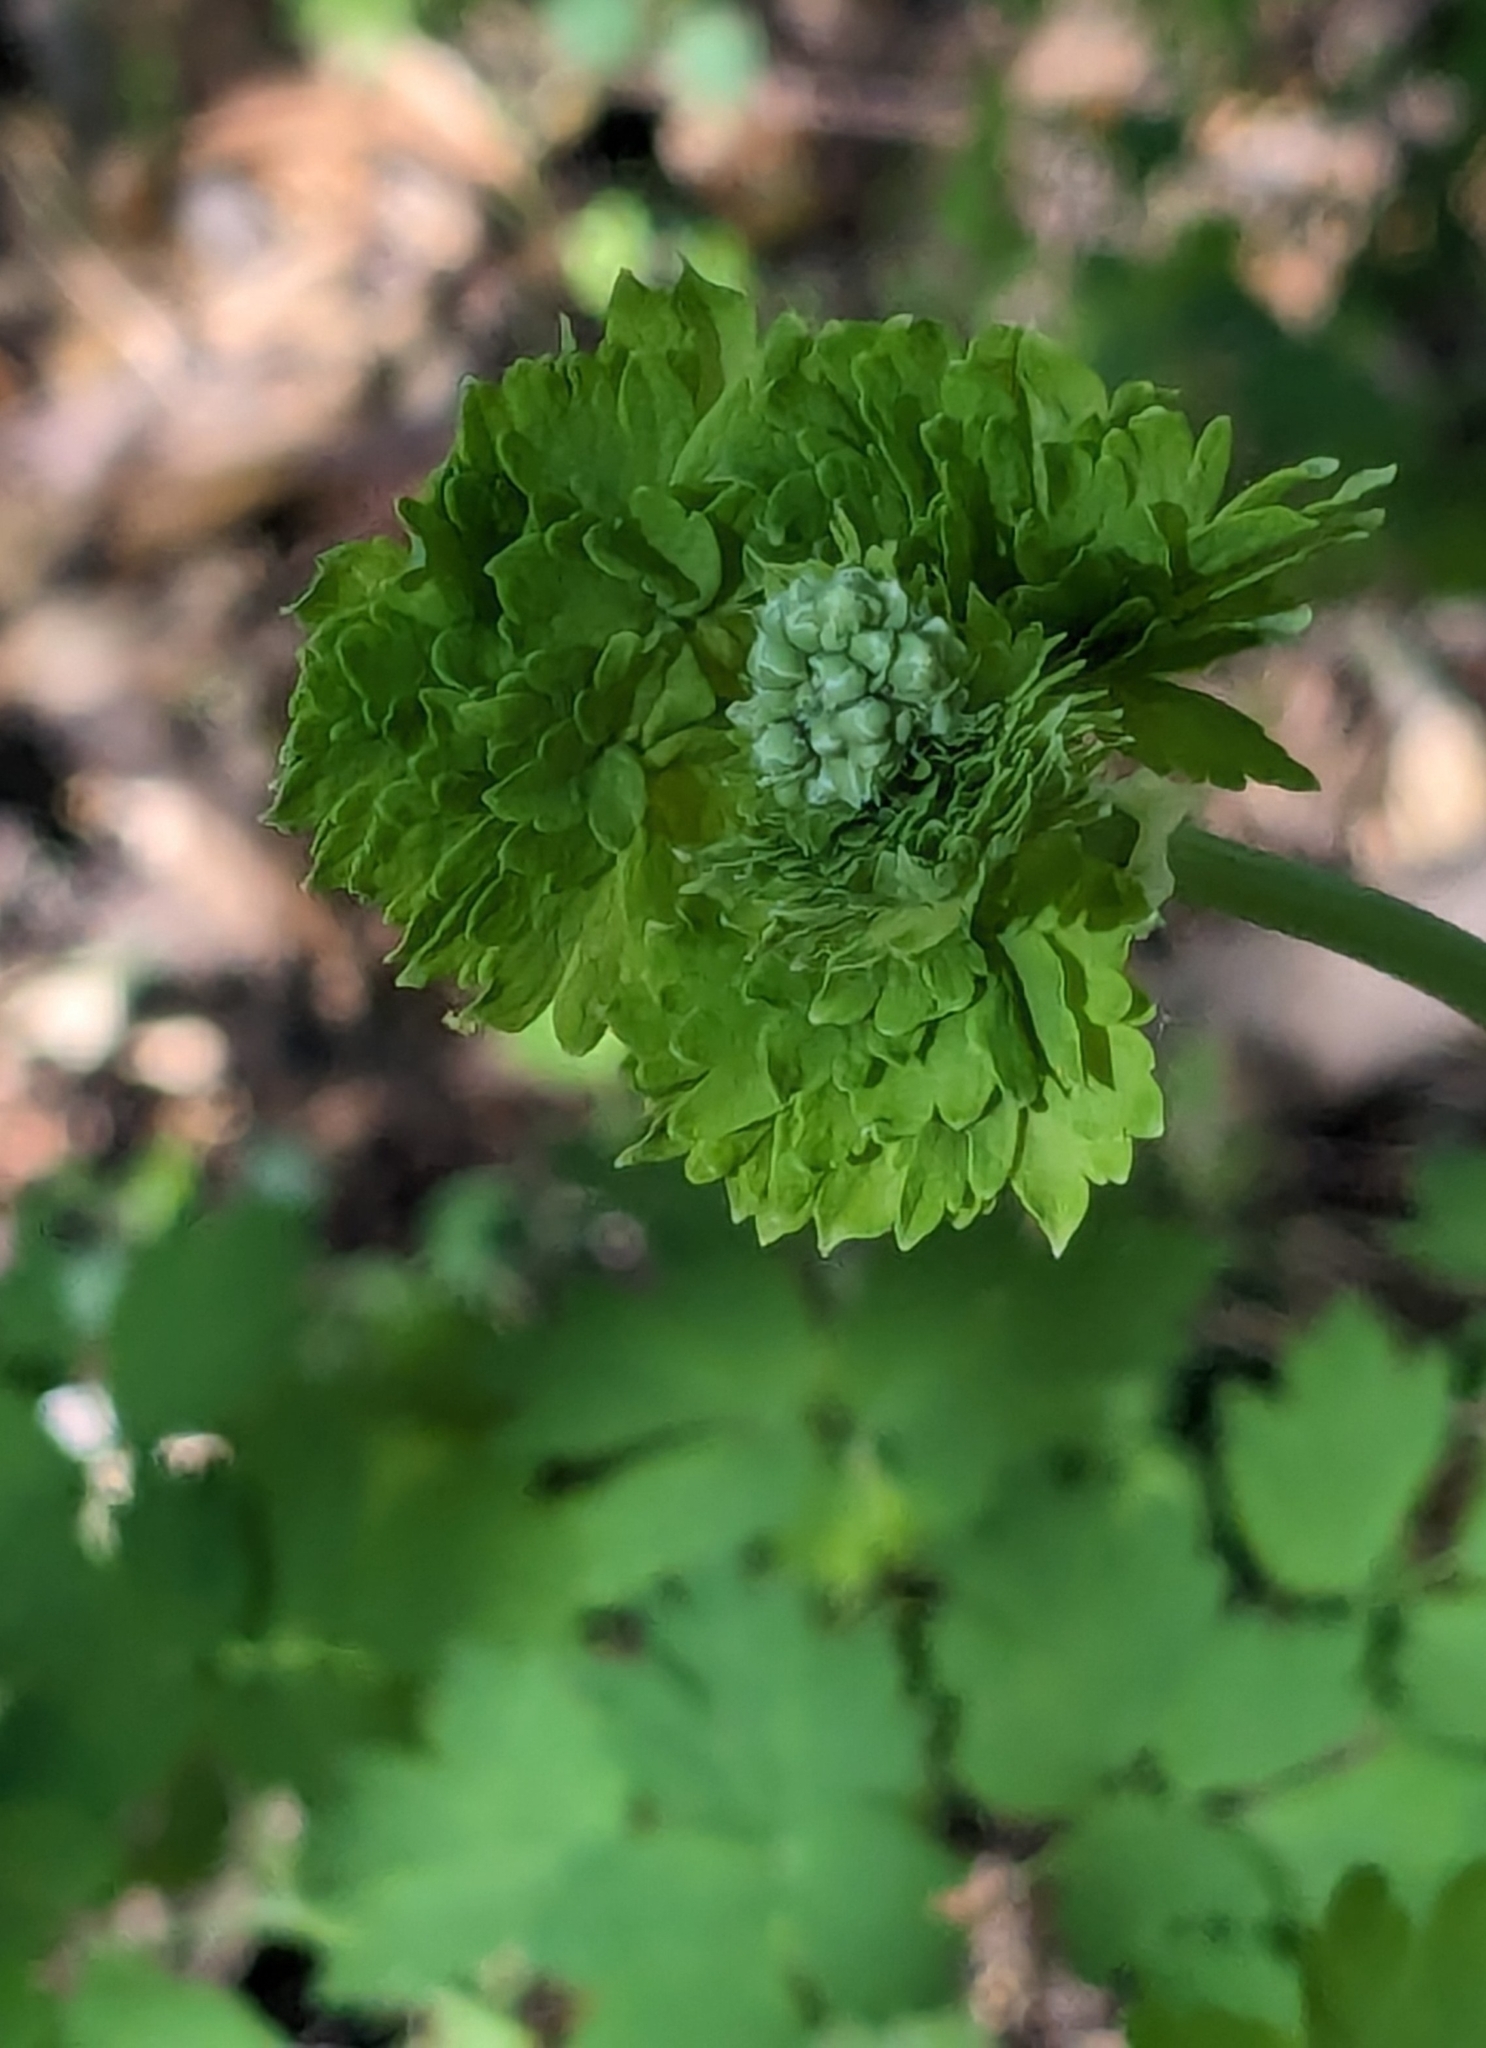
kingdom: Plantae
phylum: Tracheophyta
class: Magnoliopsida
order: Ranunculales
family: Ranunculaceae
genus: Thalictrum
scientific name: Thalictrum fendleri
